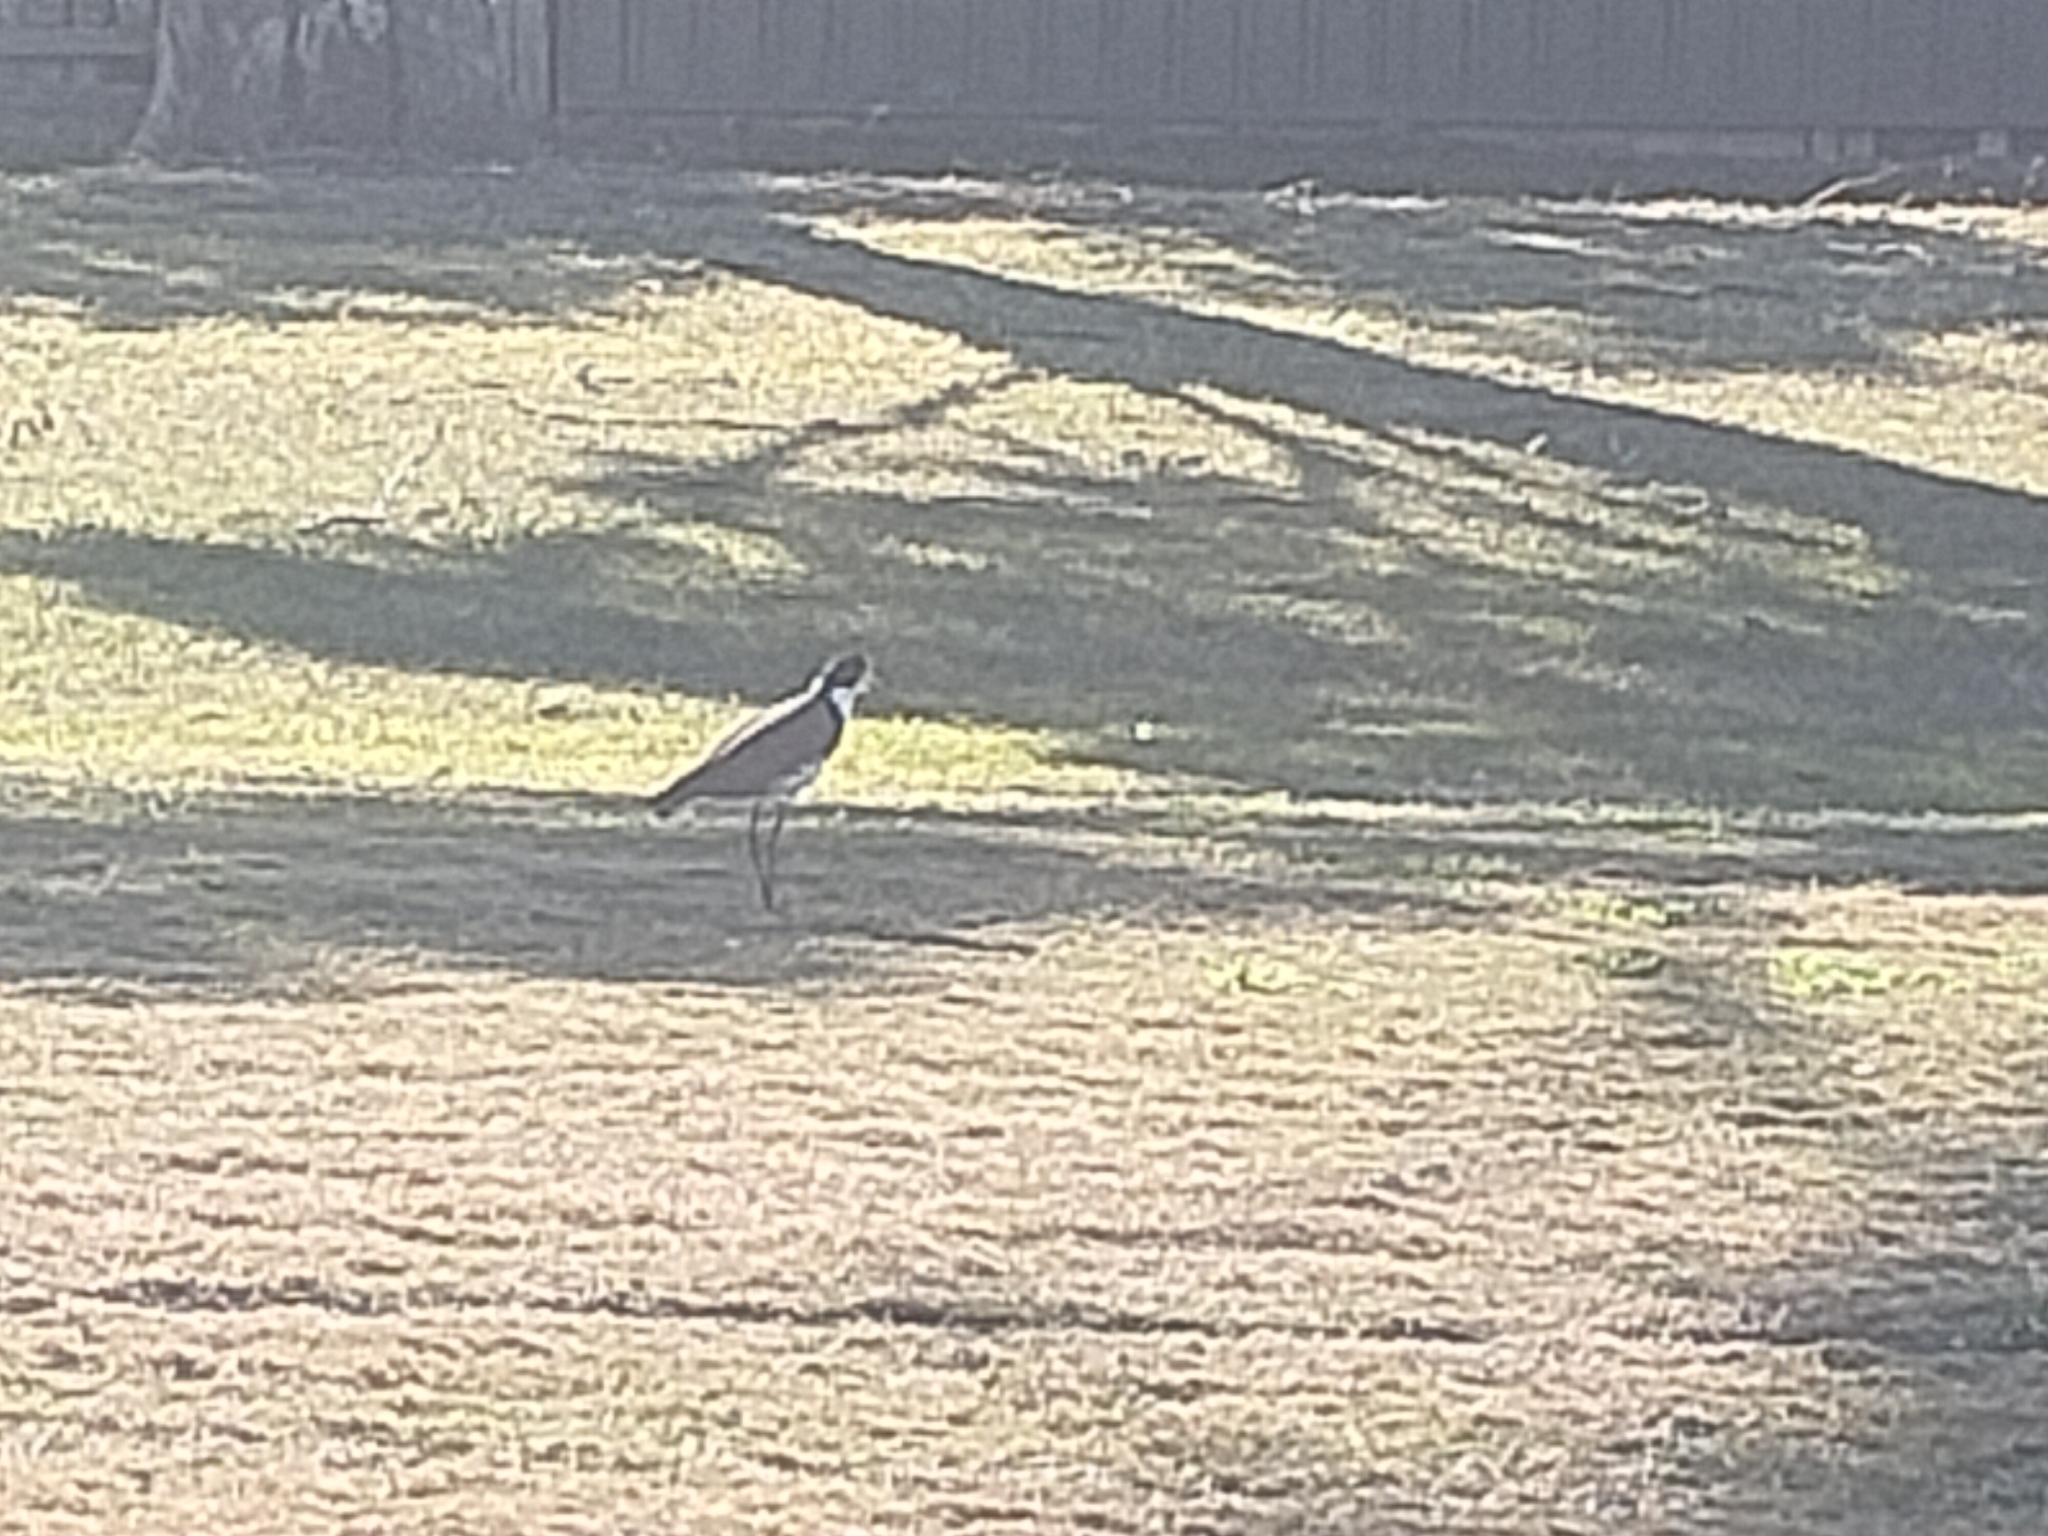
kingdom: Animalia
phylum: Chordata
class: Aves
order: Charadriiformes
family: Charadriidae
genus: Vanellus
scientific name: Vanellus miles
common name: Masked lapwing
